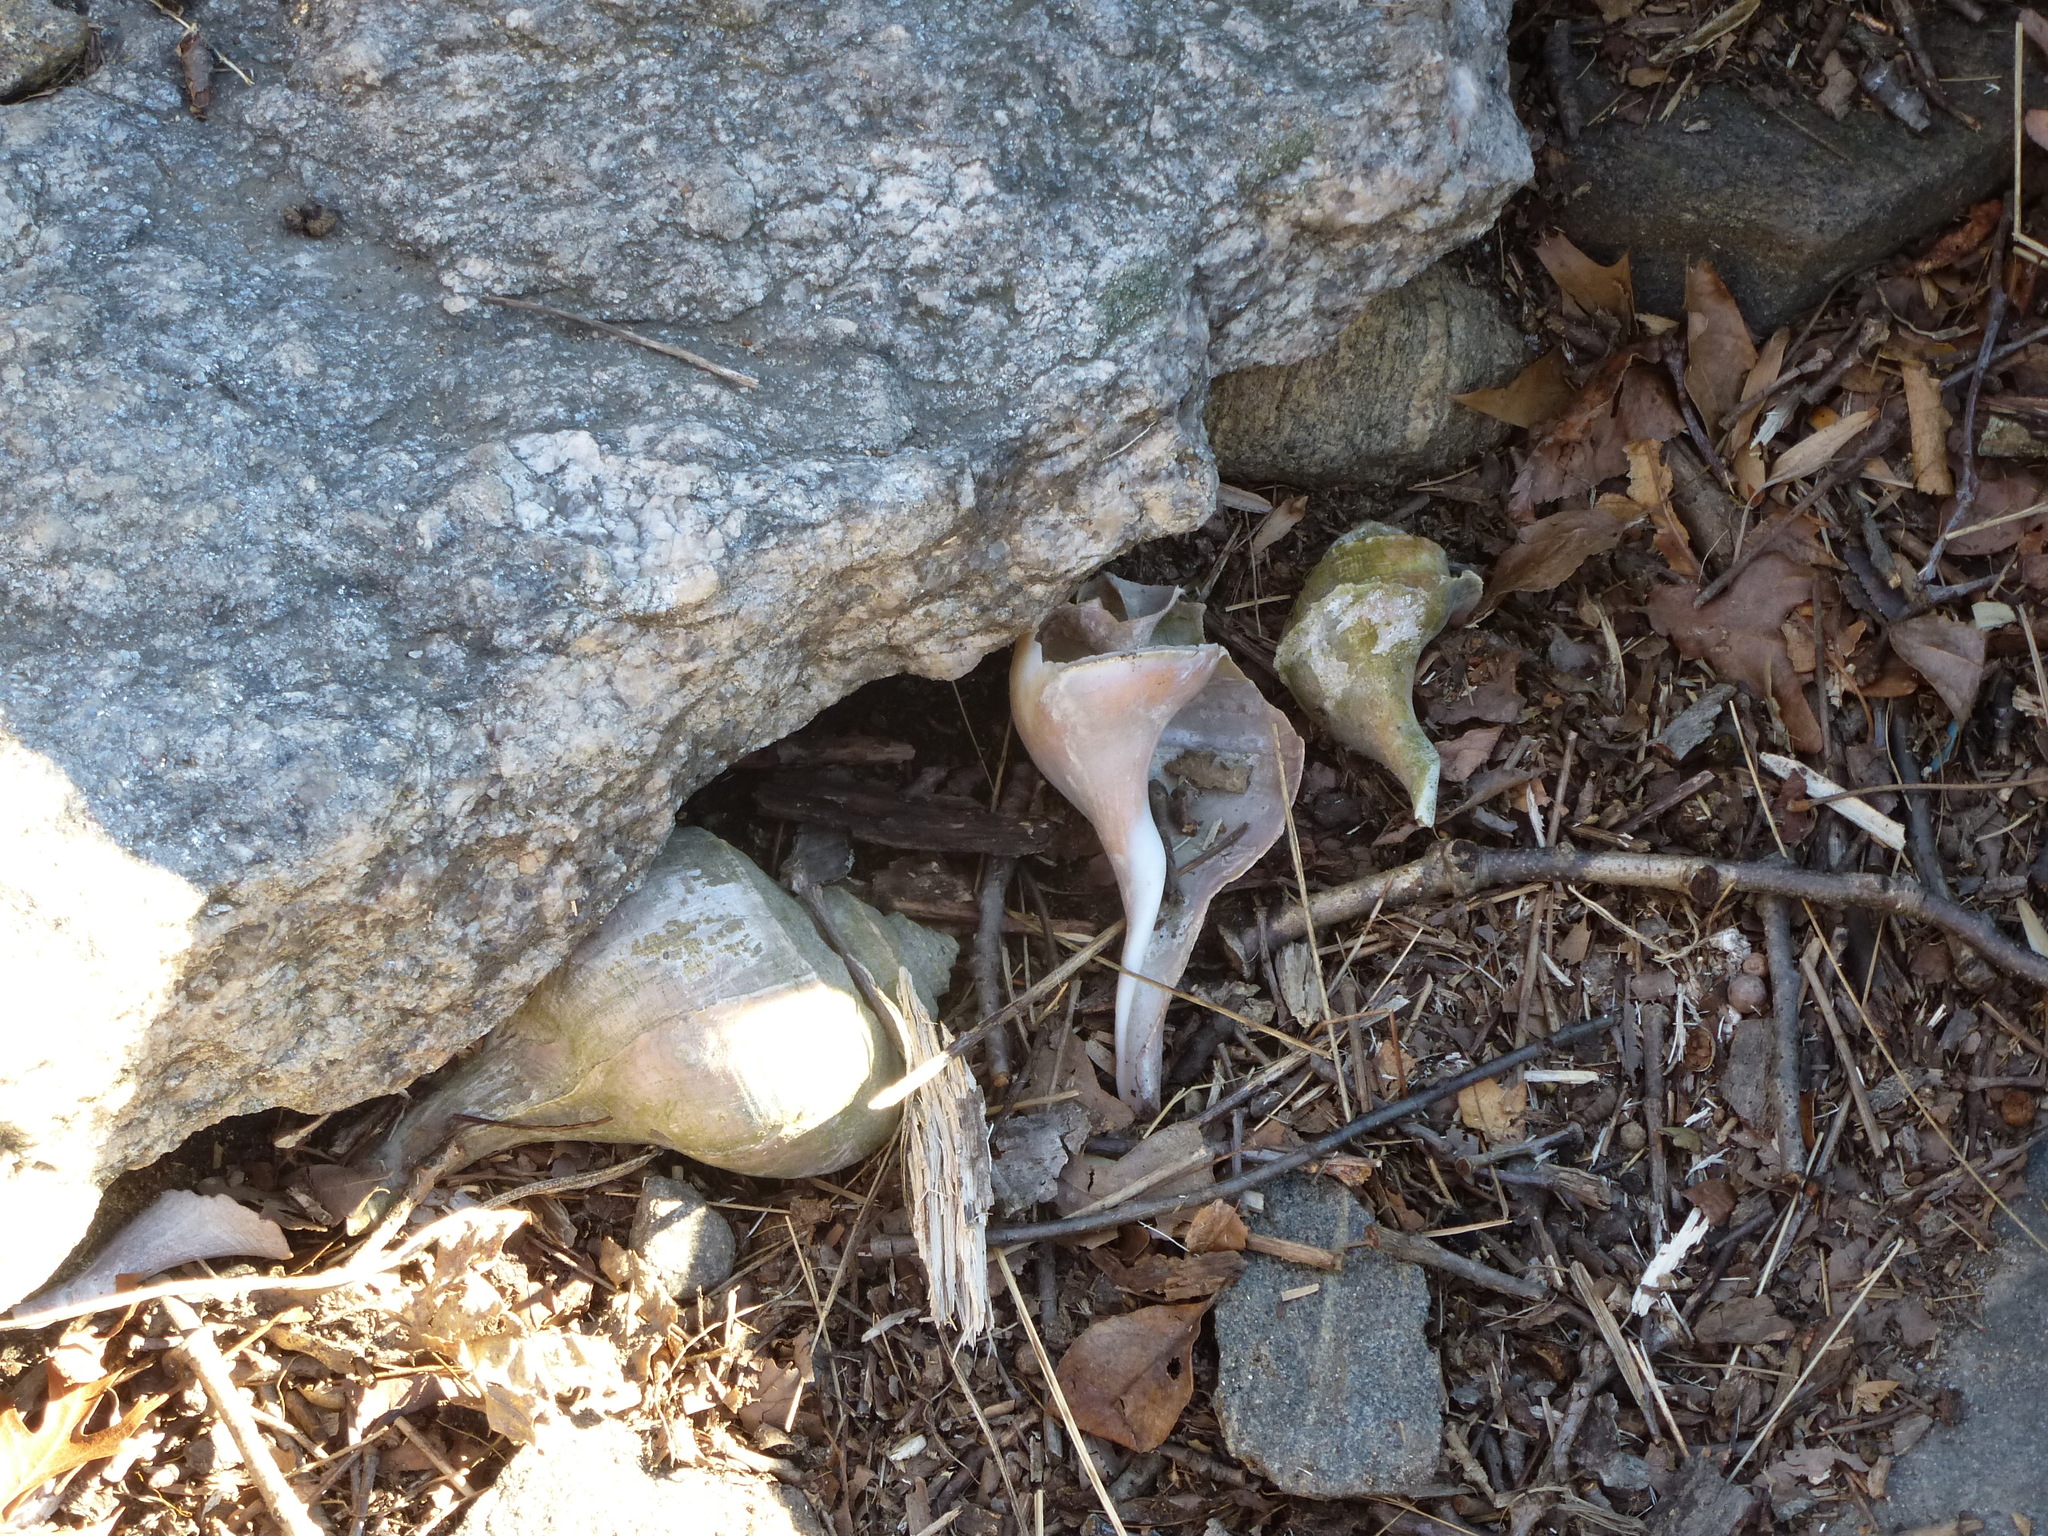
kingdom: Animalia
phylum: Mollusca
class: Gastropoda
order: Neogastropoda
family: Busyconidae
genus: Busycotypus
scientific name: Busycotypus canaliculatus
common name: Channeled whelk
